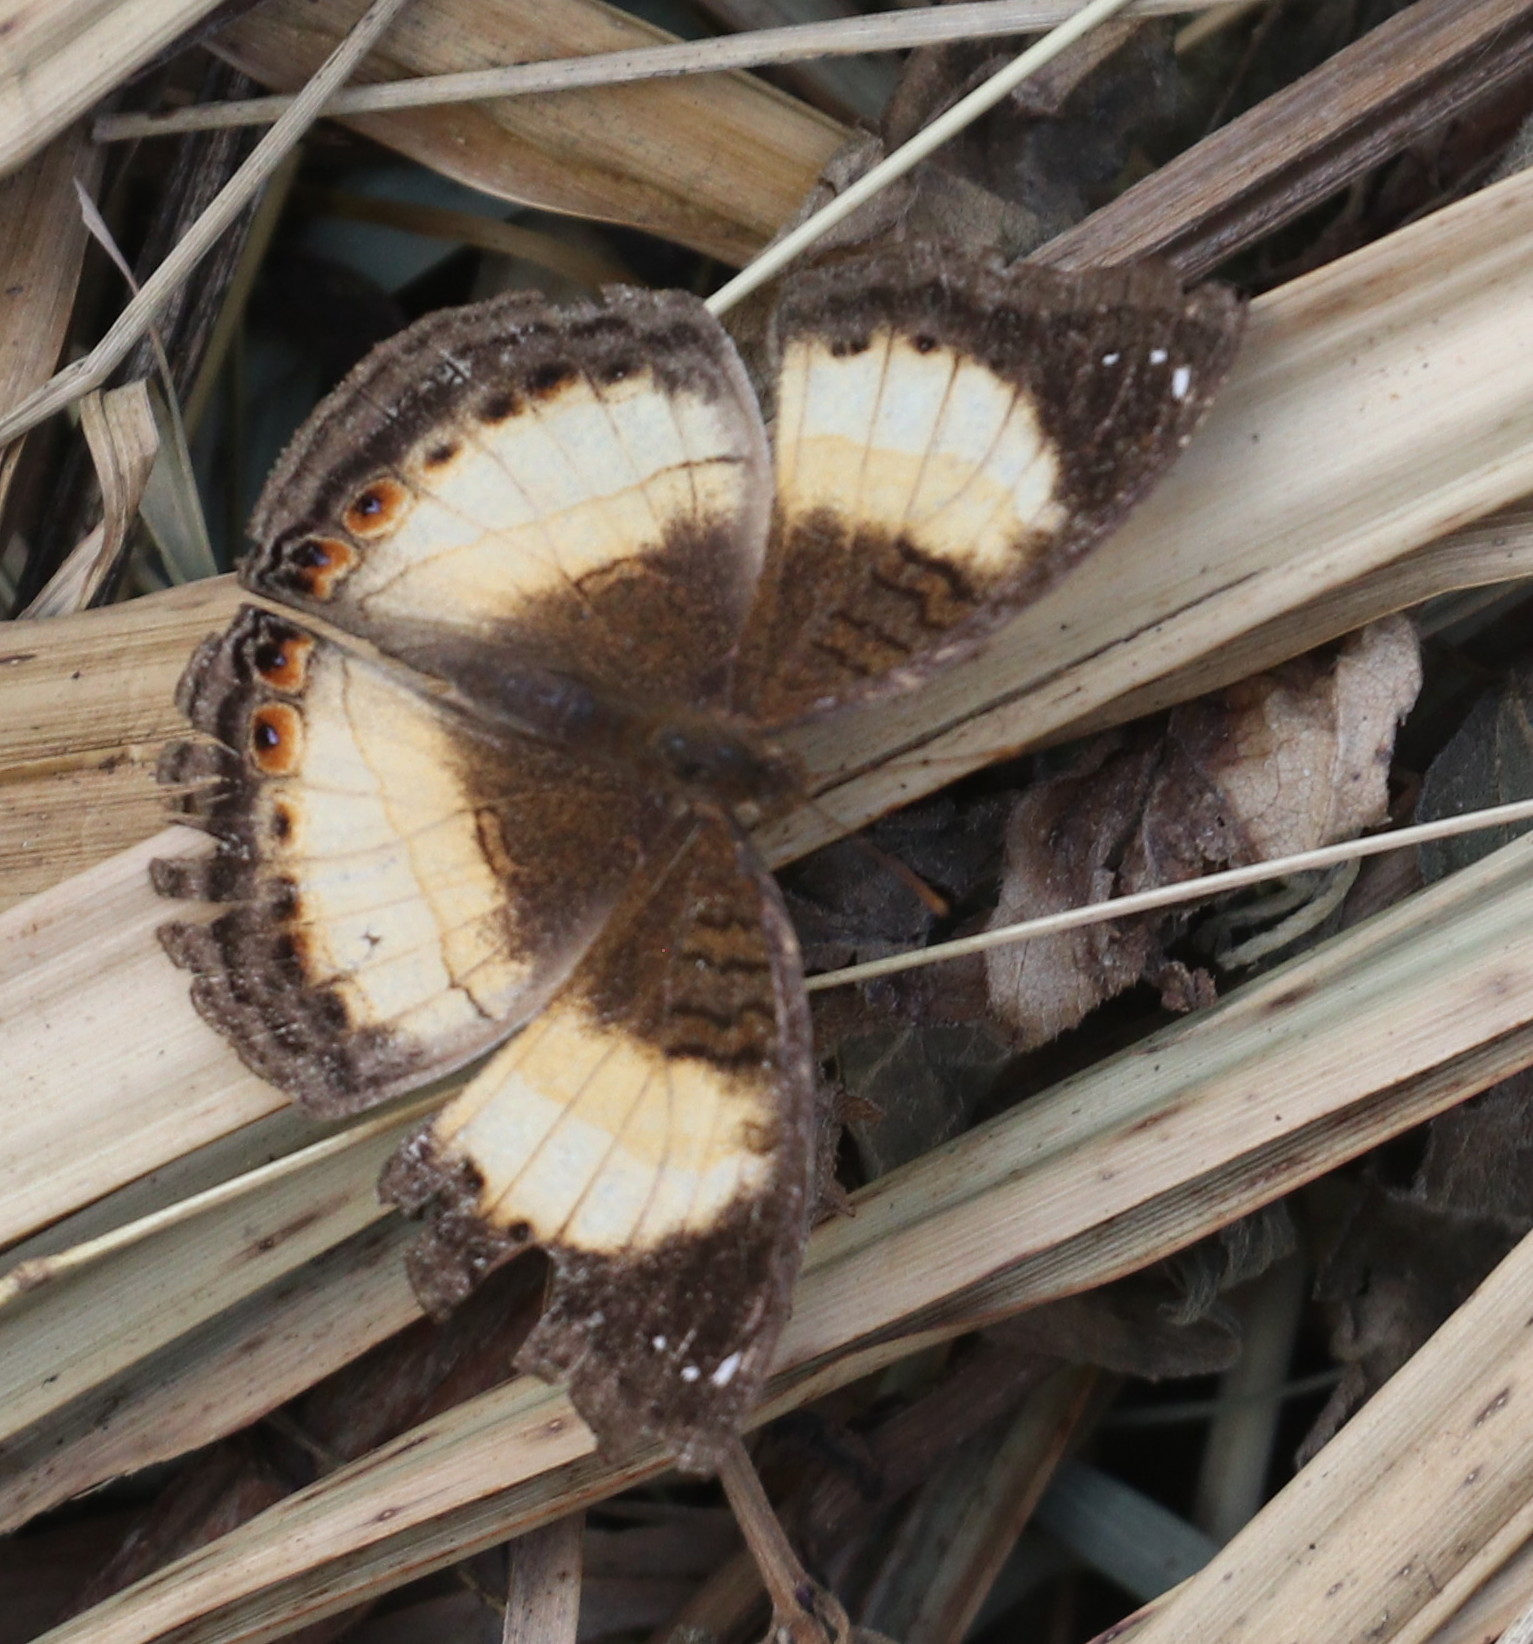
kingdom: Animalia
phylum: Arthropoda
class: Insecta
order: Lepidoptera
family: Nymphalidae
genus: Junonia
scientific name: Junonia terea
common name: Soldier pansy
